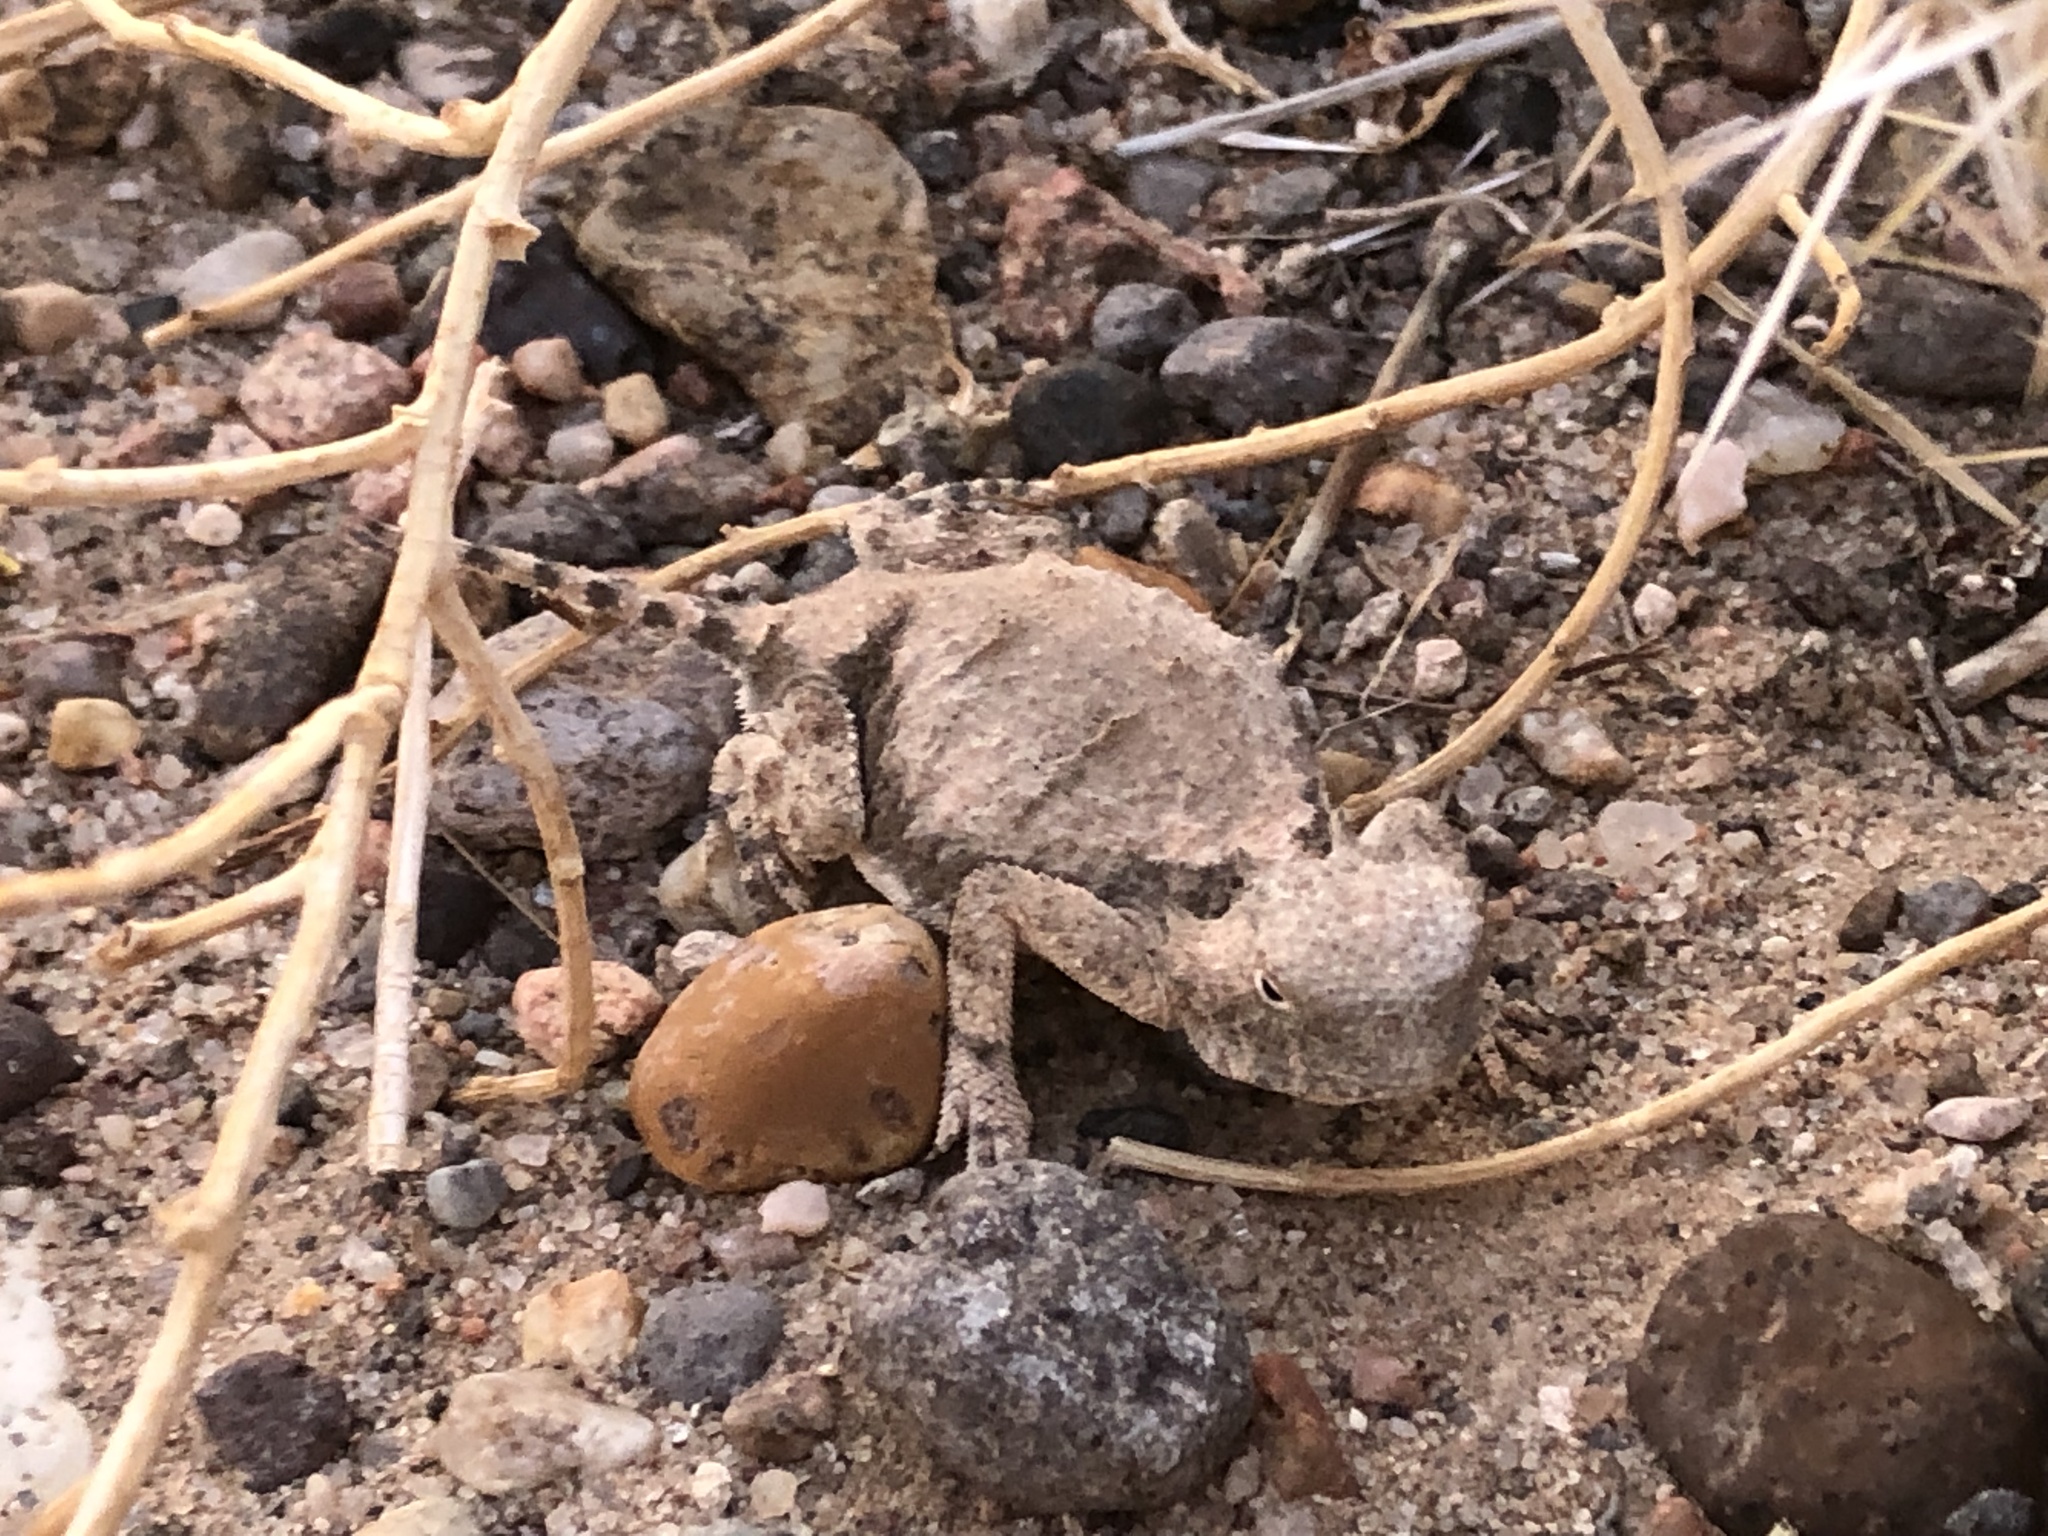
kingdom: Animalia
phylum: Chordata
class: Squamata
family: Phrynosomatidae
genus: Phrynosoma
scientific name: Phrynosoma modestum
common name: Roundtail horned lizard
